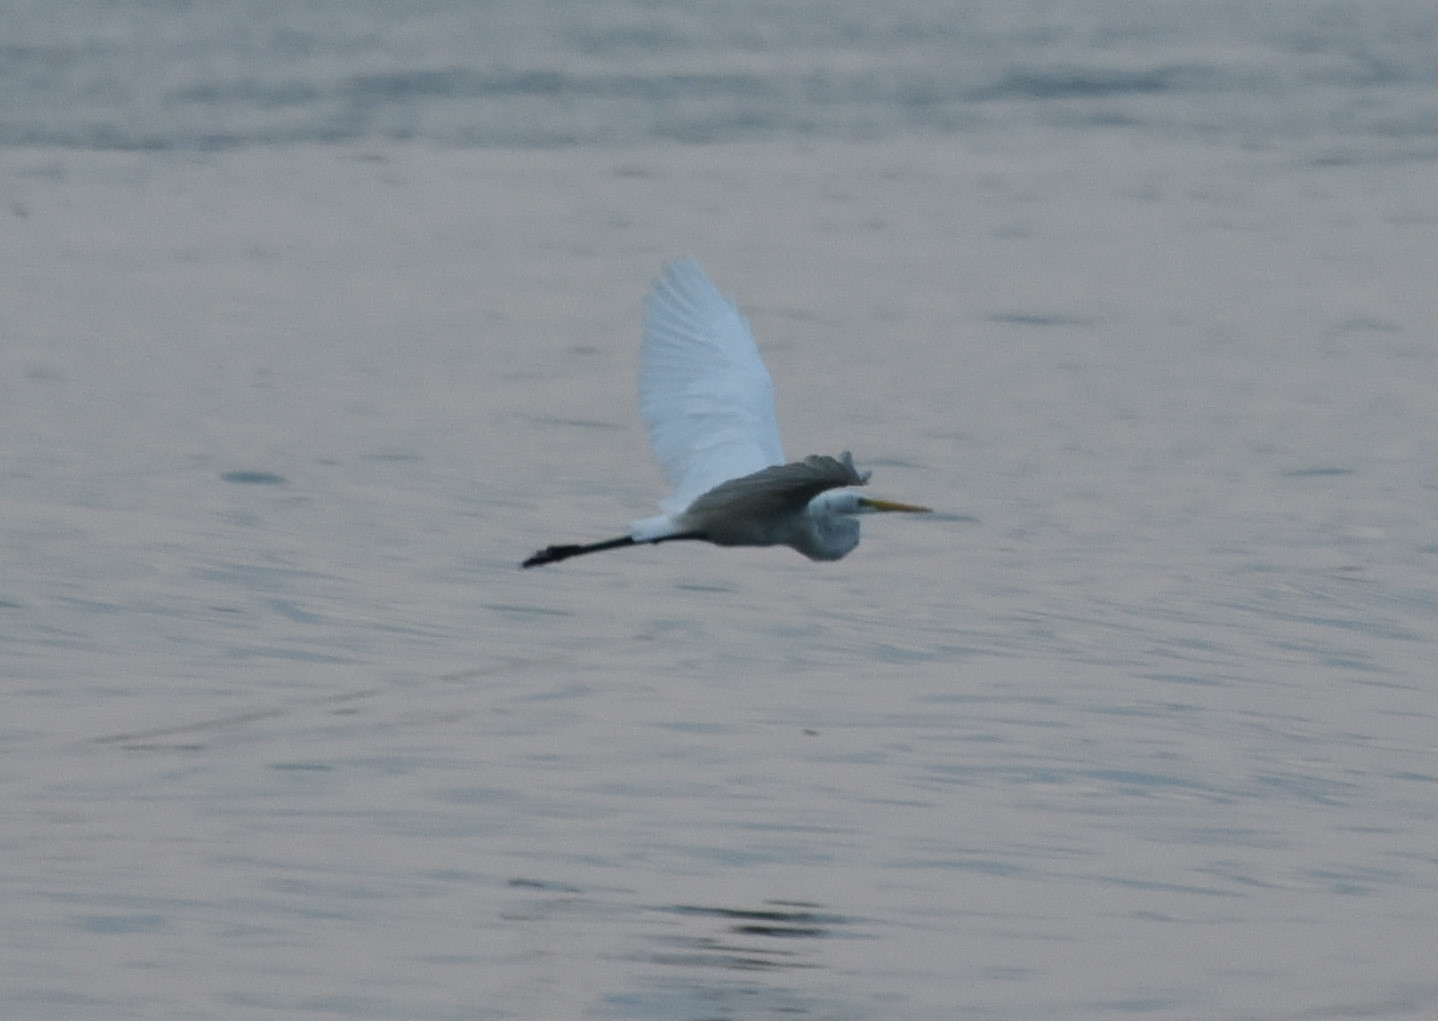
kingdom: Animalia
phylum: Chordata
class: Aves
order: Pelecaniformes
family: Ardeidae
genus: Ardea
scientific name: Ardea alba
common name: Great egret
